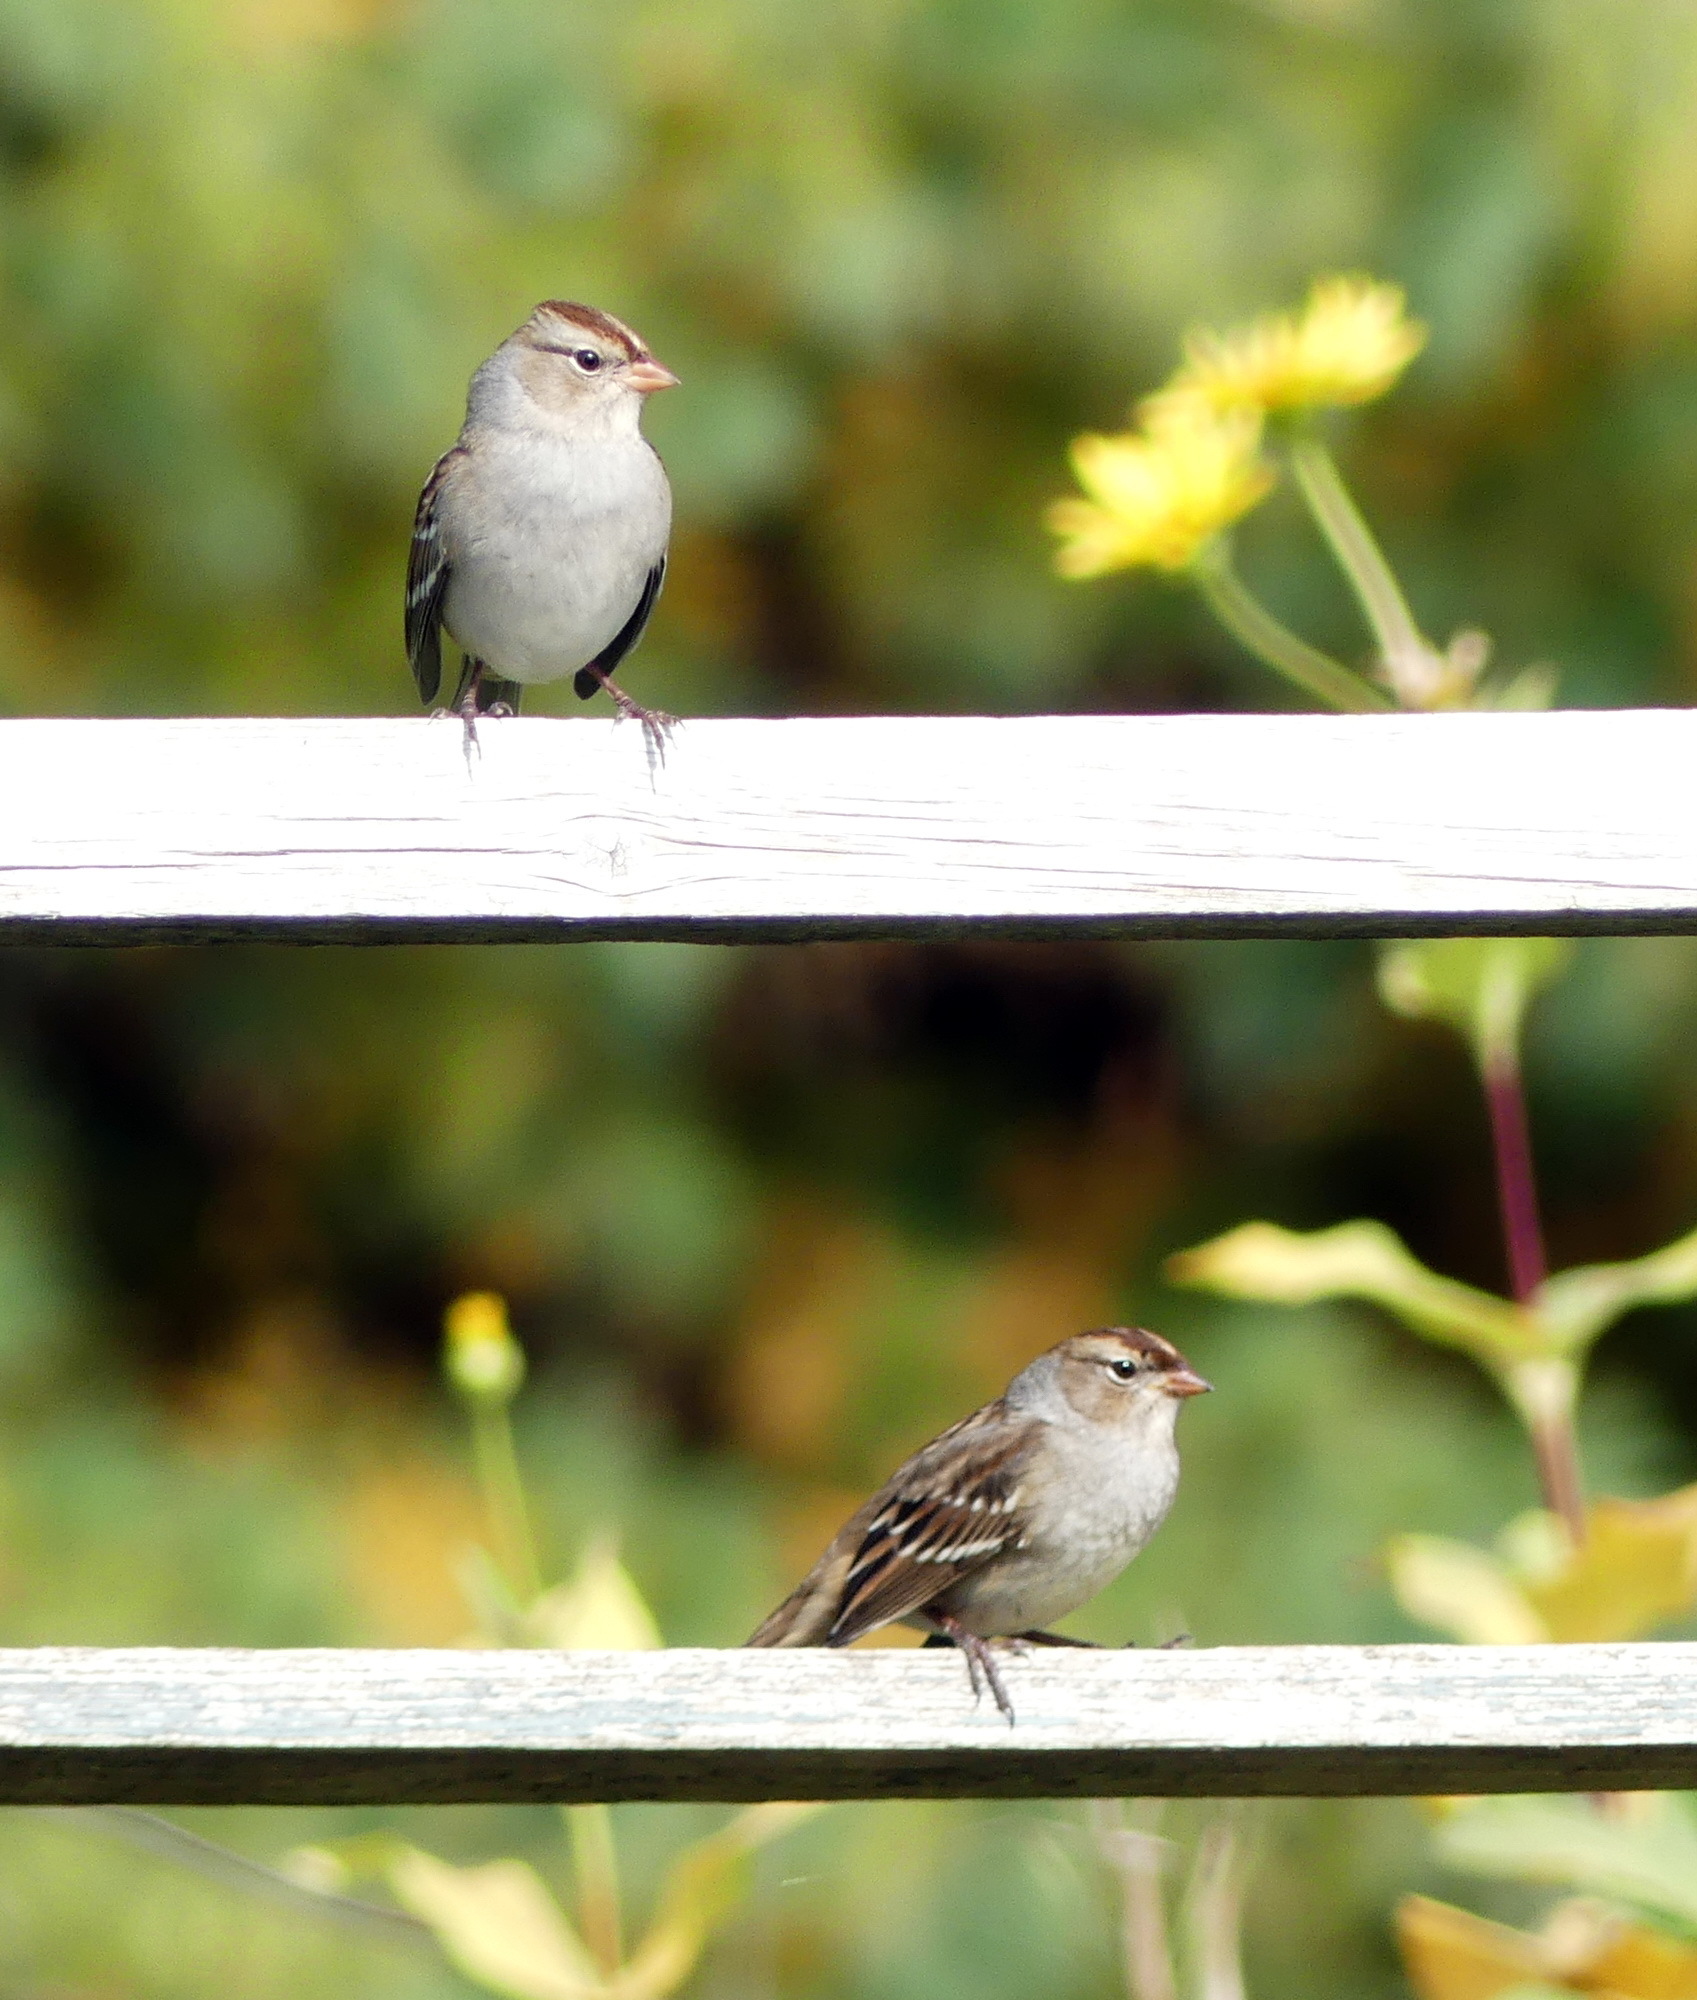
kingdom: Animalia
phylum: Chordata
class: Aves
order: Passeriformes
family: Passerellidae
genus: Zonotrichia
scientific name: Zonotrichia leucophrys
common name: White-crowned sparrow
